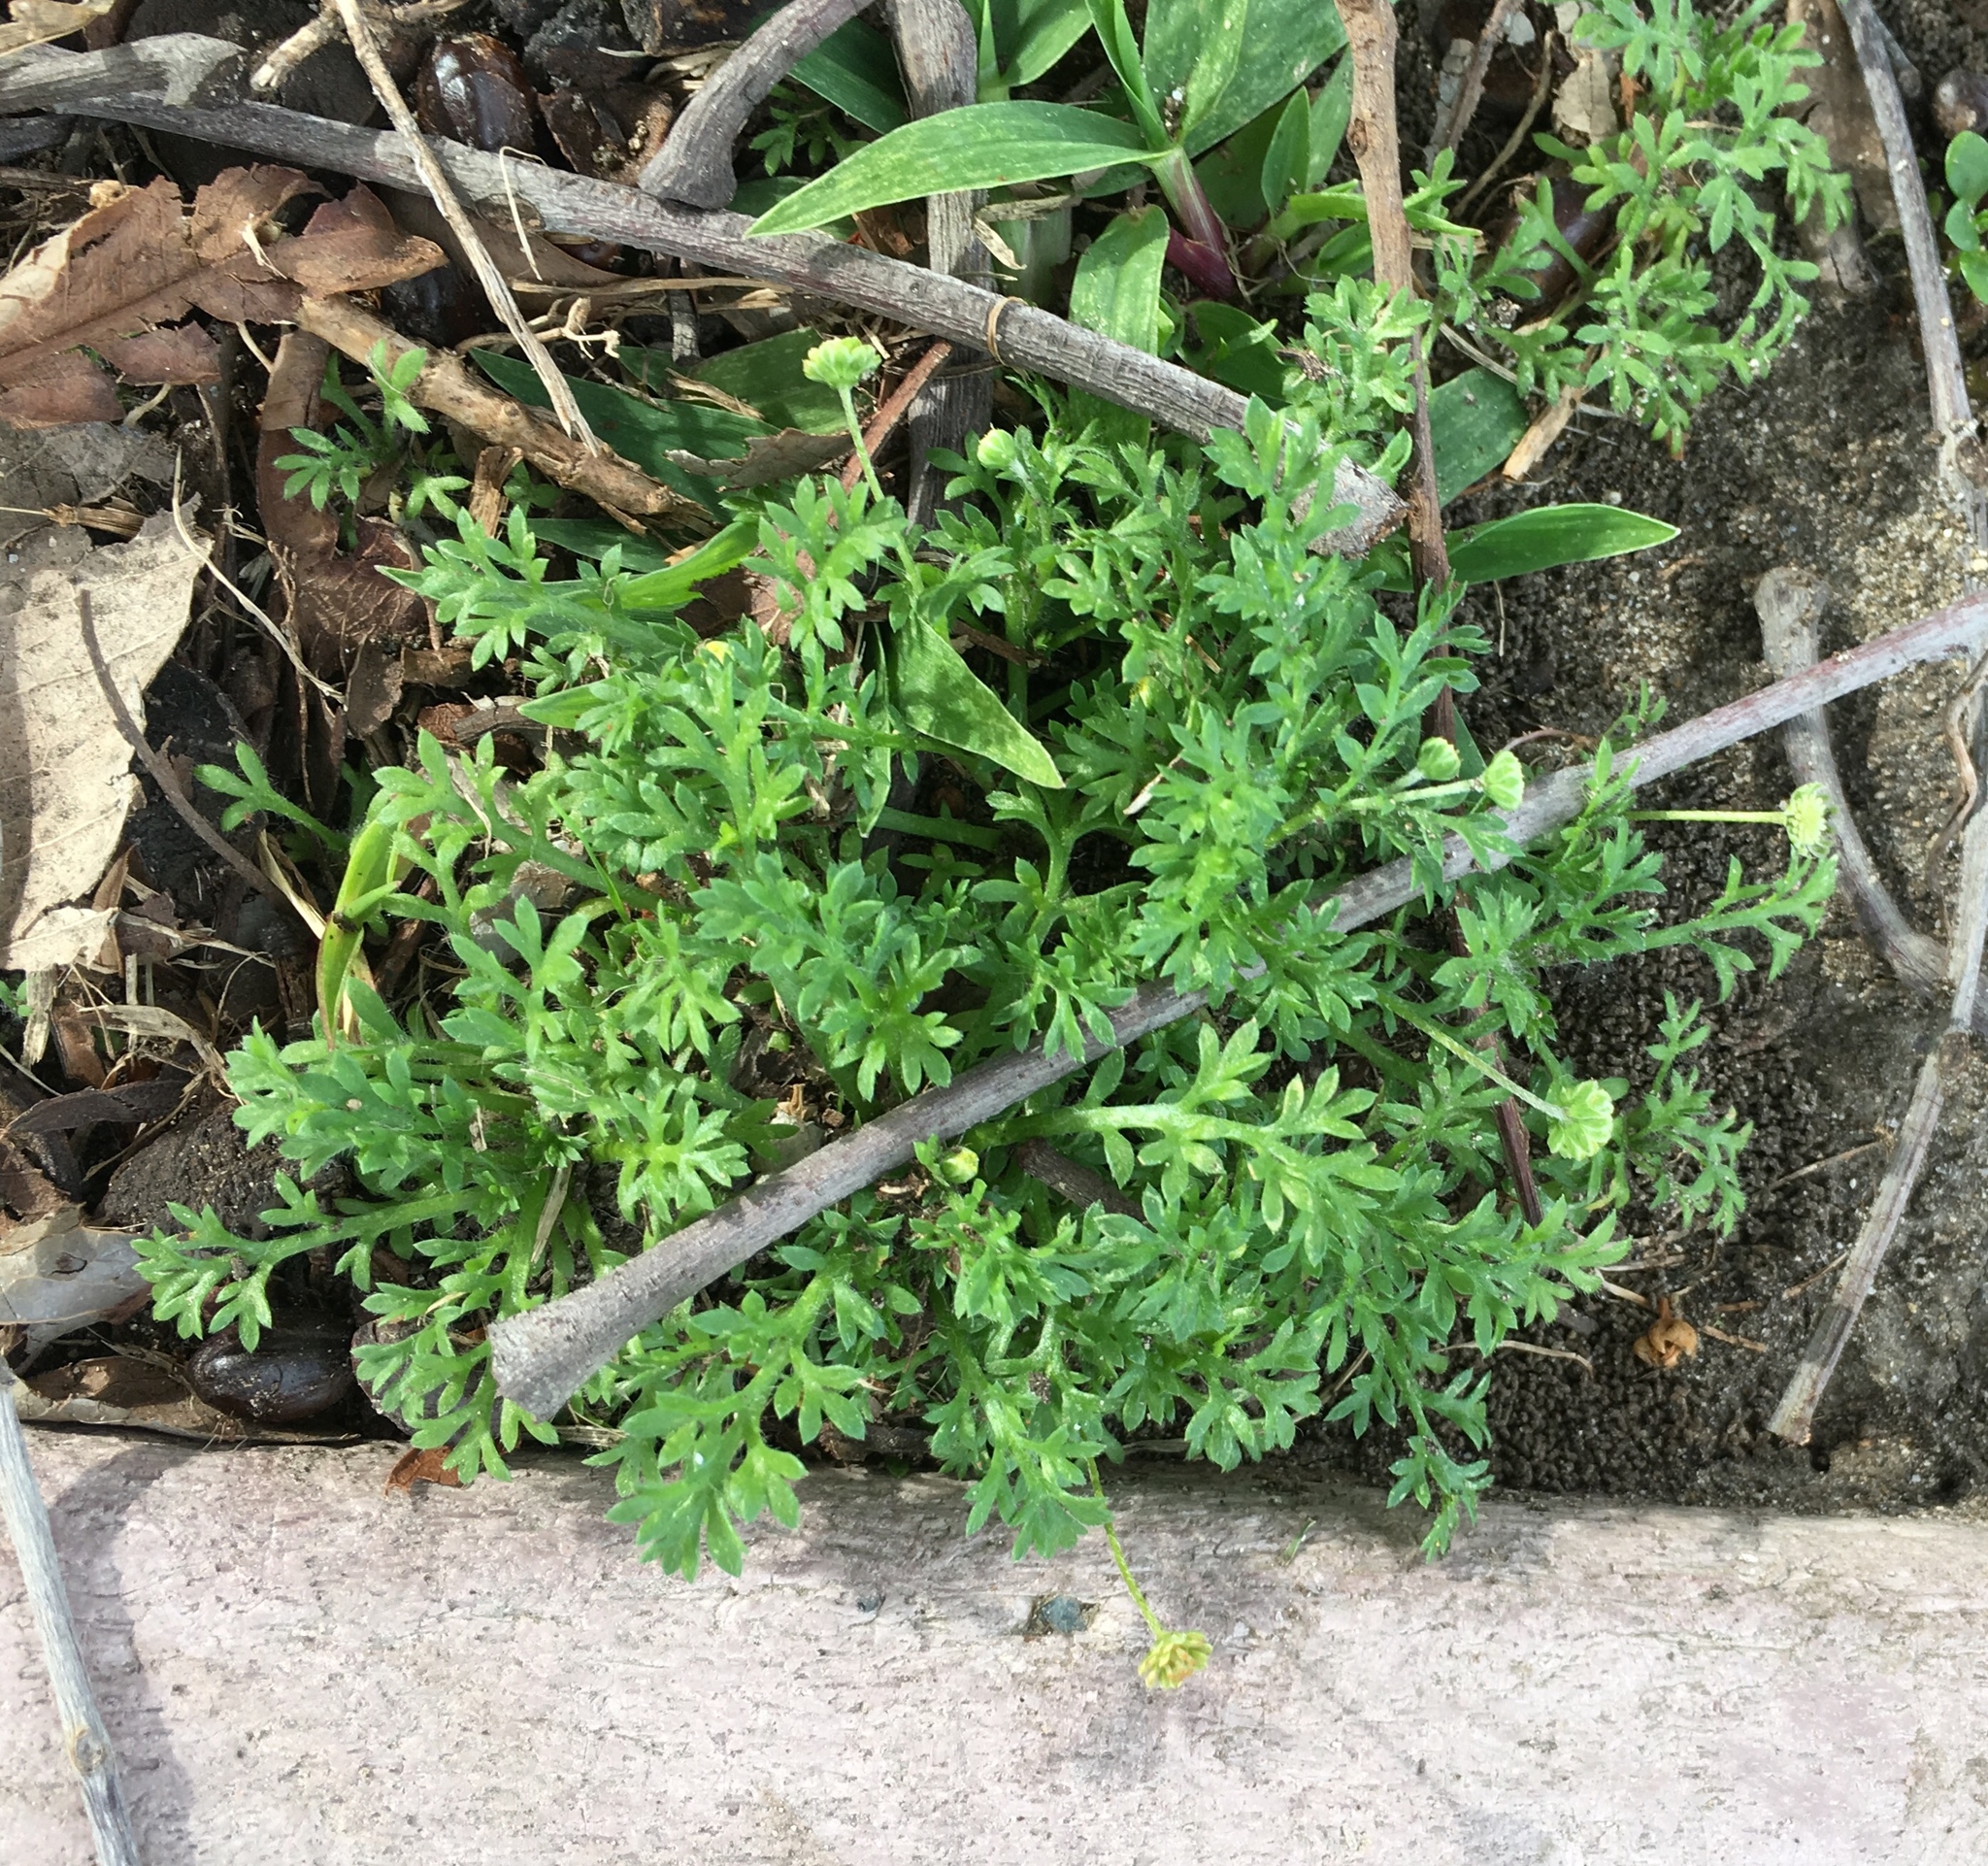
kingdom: Plantae
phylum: Tracheophyta
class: Magnoliopsida
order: Asterales
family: Asteraceae
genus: Cotula
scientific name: Cotula australis
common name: Australian waterbuttons
